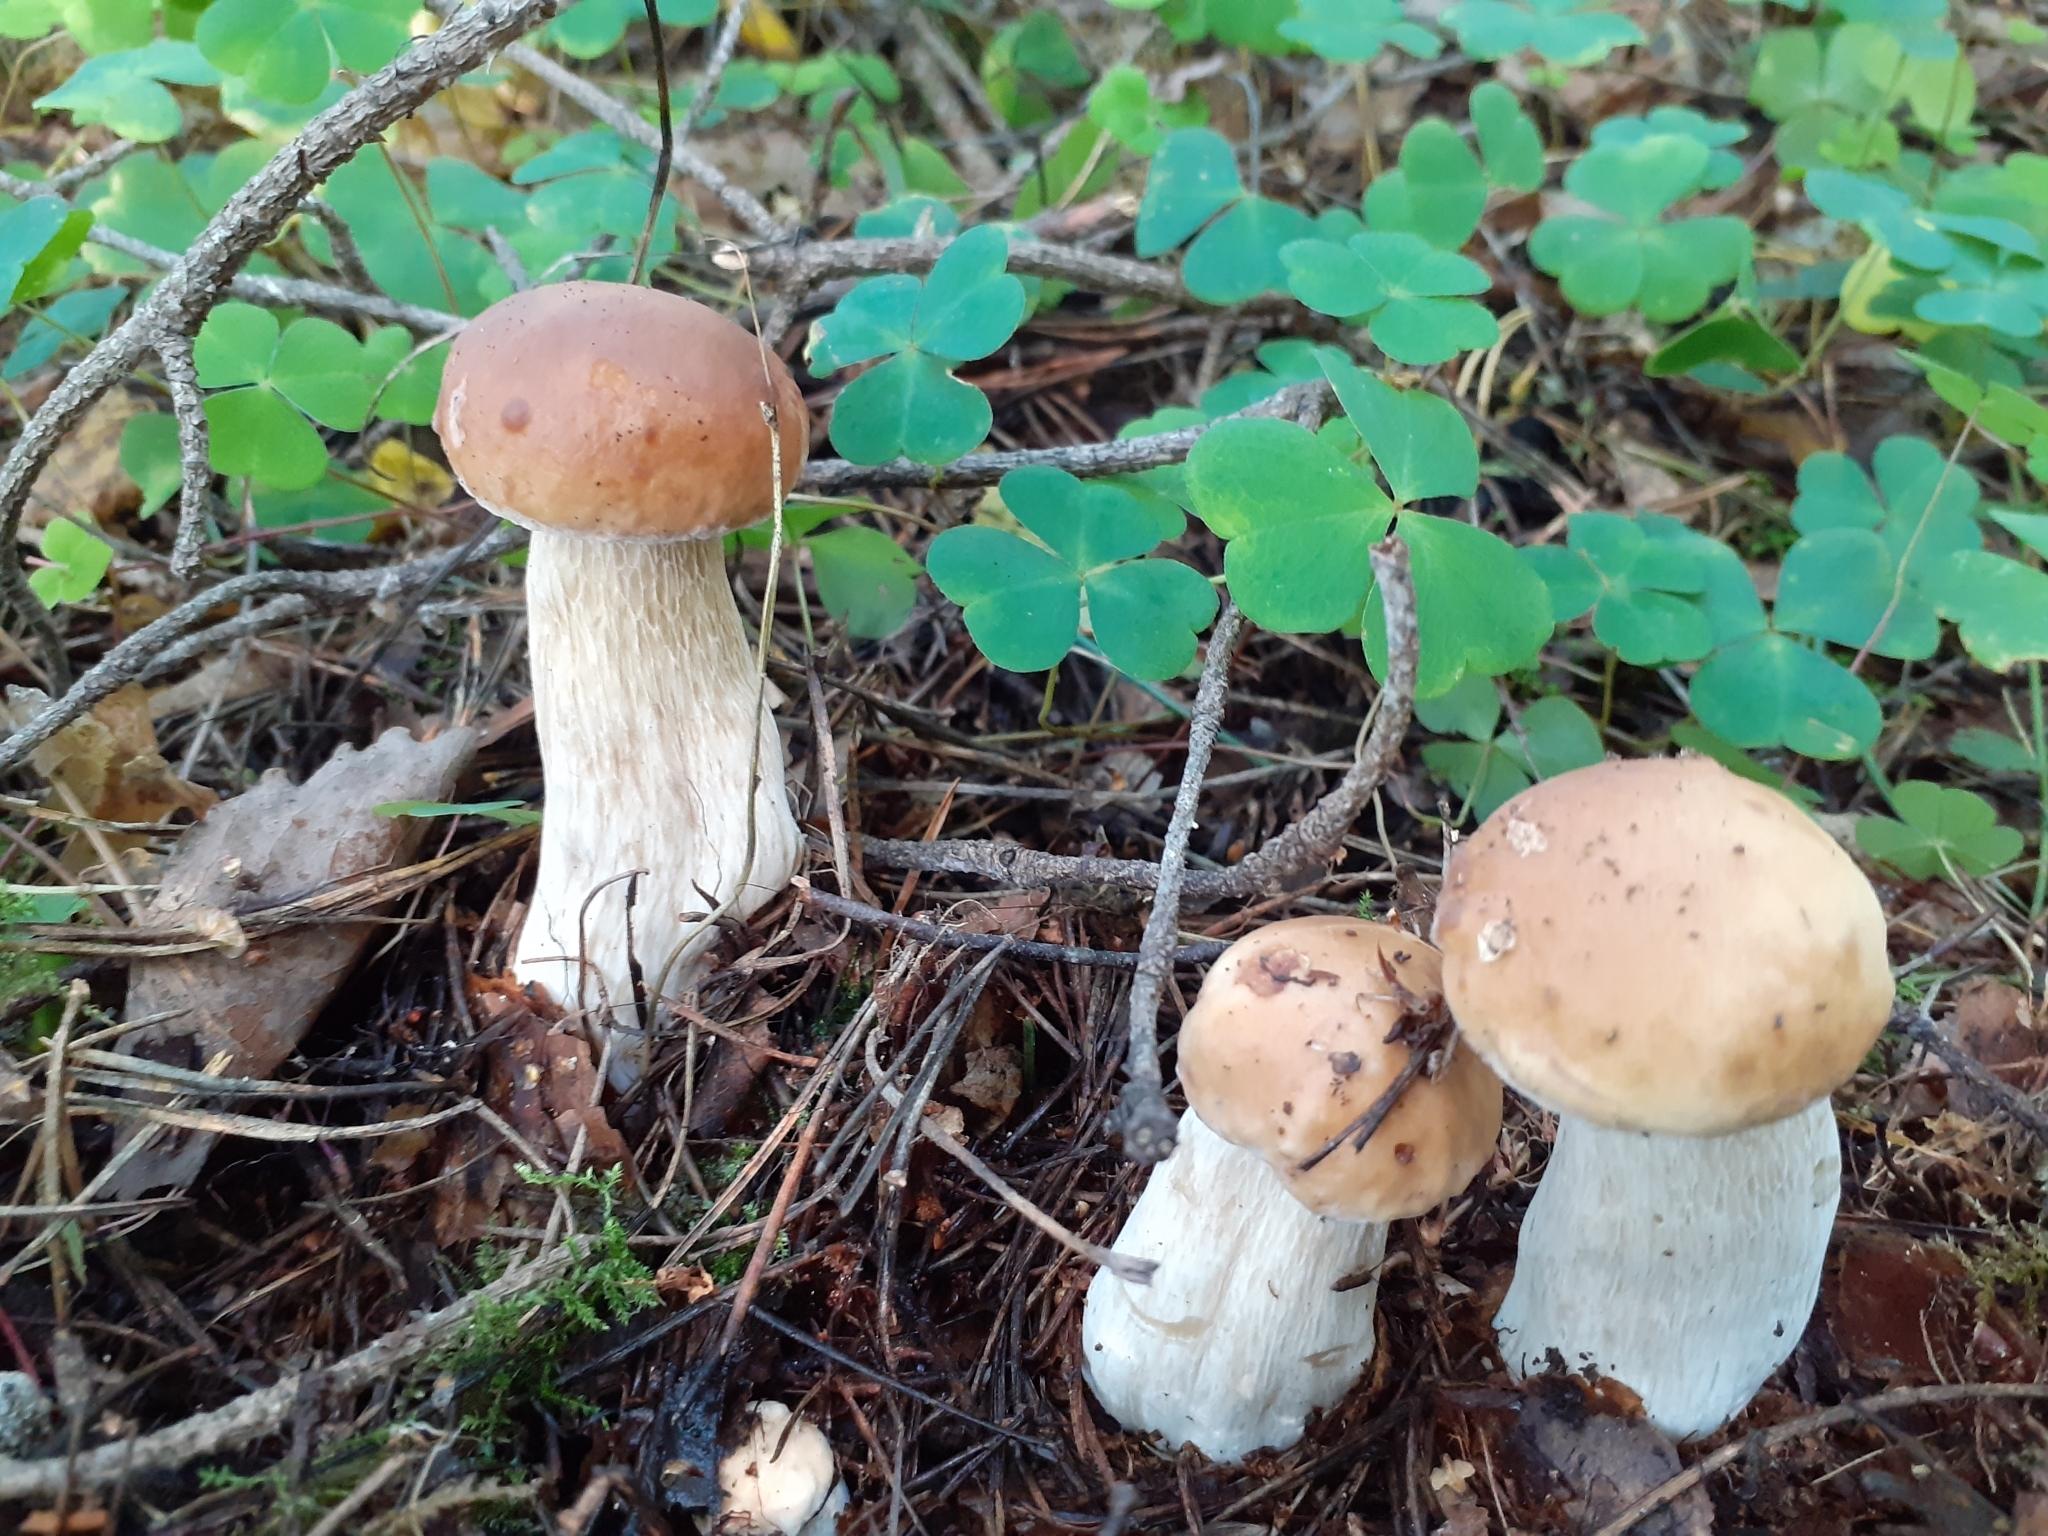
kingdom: Fungi
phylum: Basidiomycota
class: Agaricomycetes
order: Boletales
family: Boletaceae
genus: Boletus
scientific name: Boletus edulis
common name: Cep
